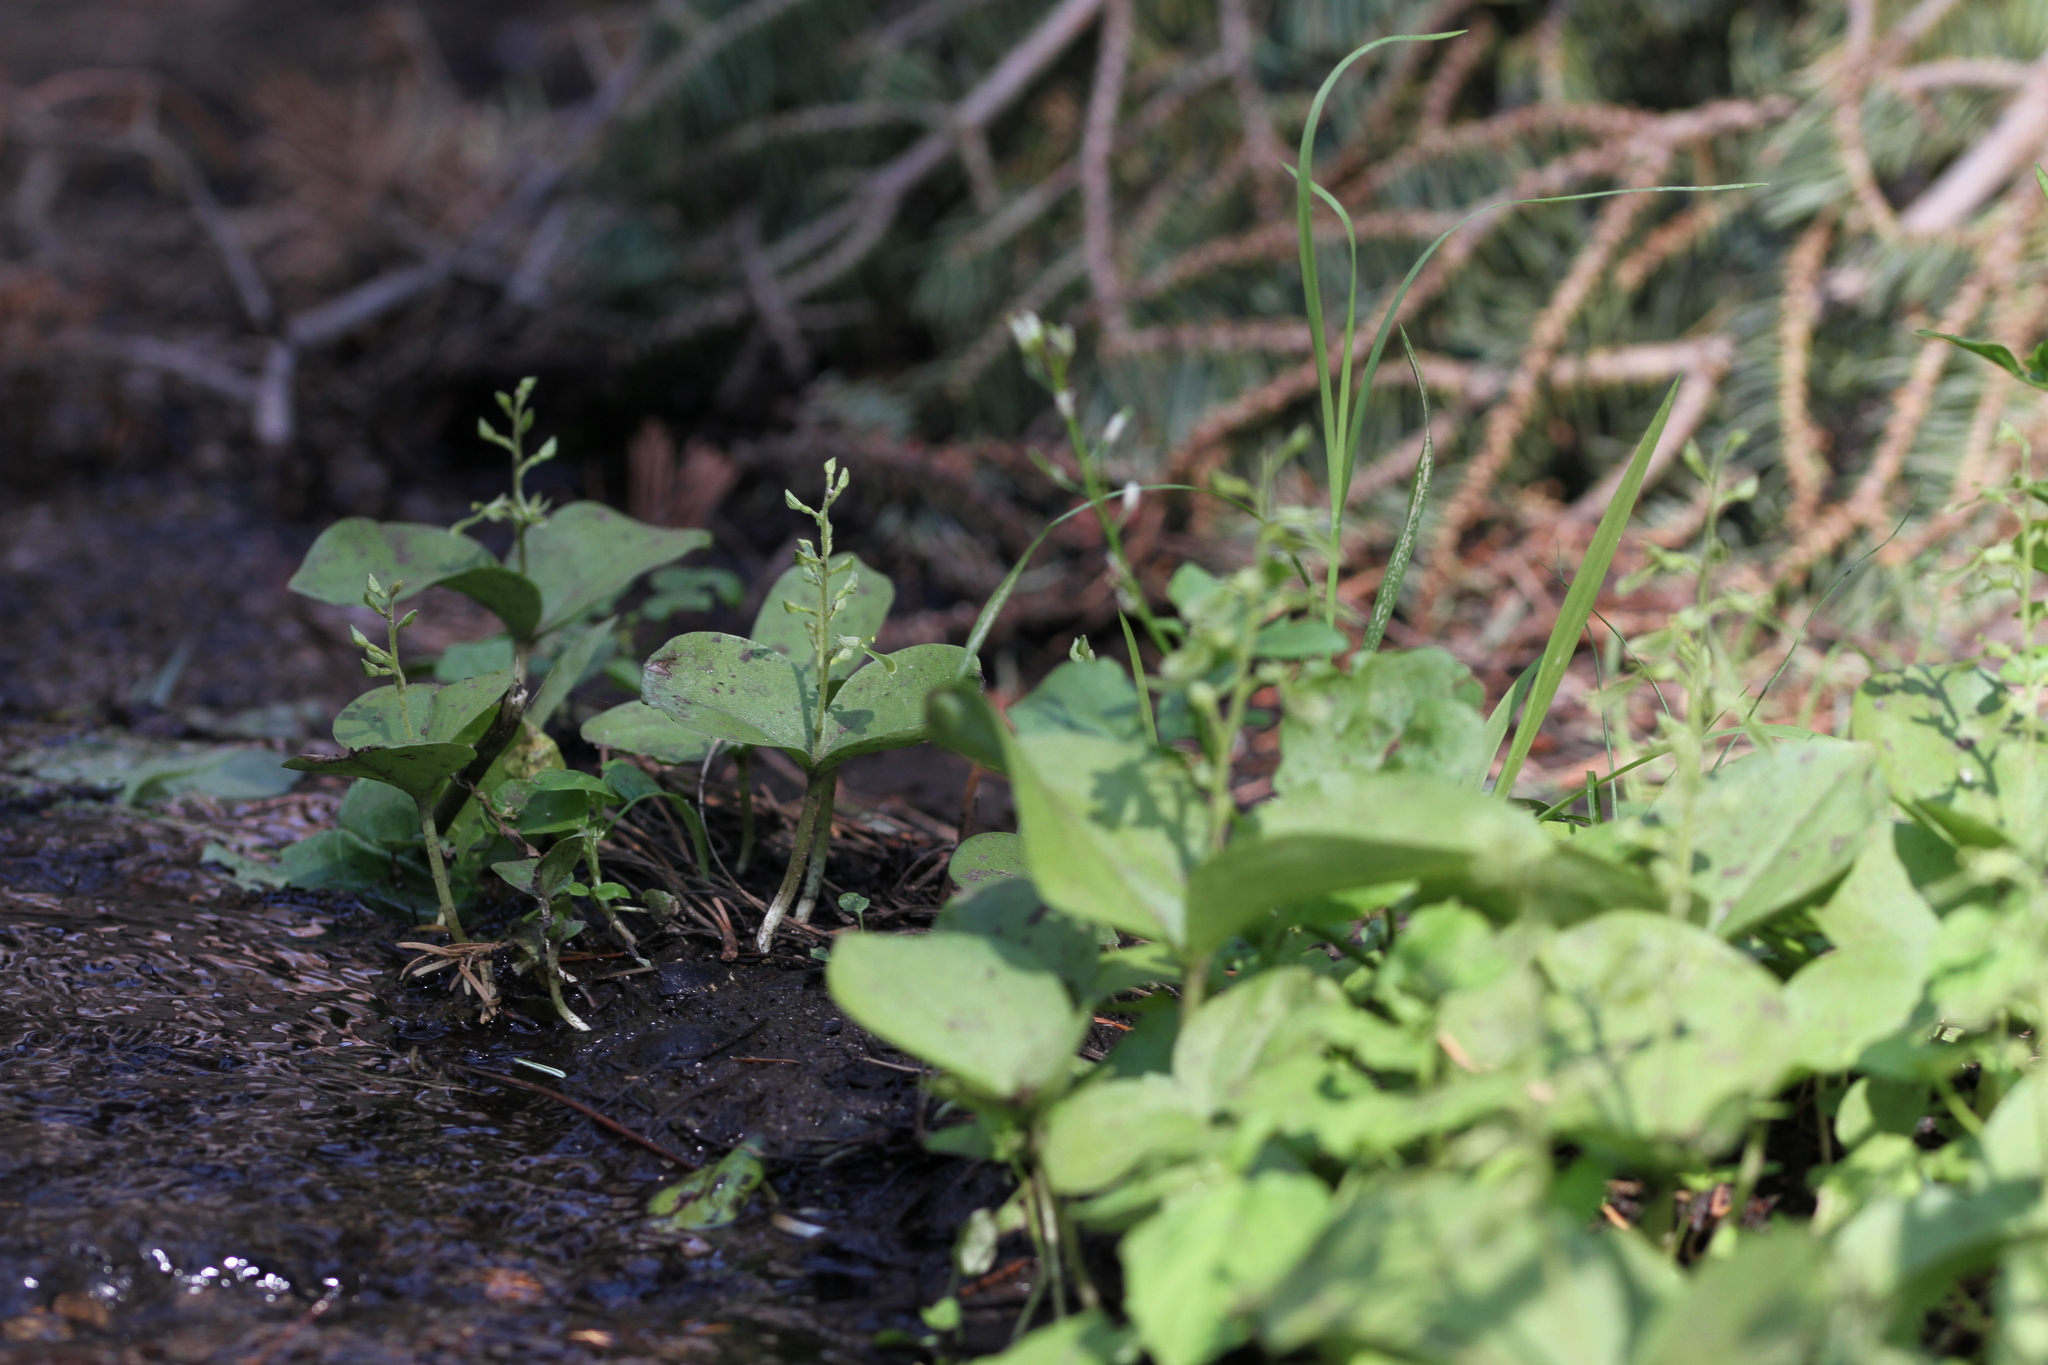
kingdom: Plantae
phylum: Tracheophyta
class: Liliopsida
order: Asparagales
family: Orchidaceae
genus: Neottia
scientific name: Neottia convallarioides
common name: Broadleaf twayblade
